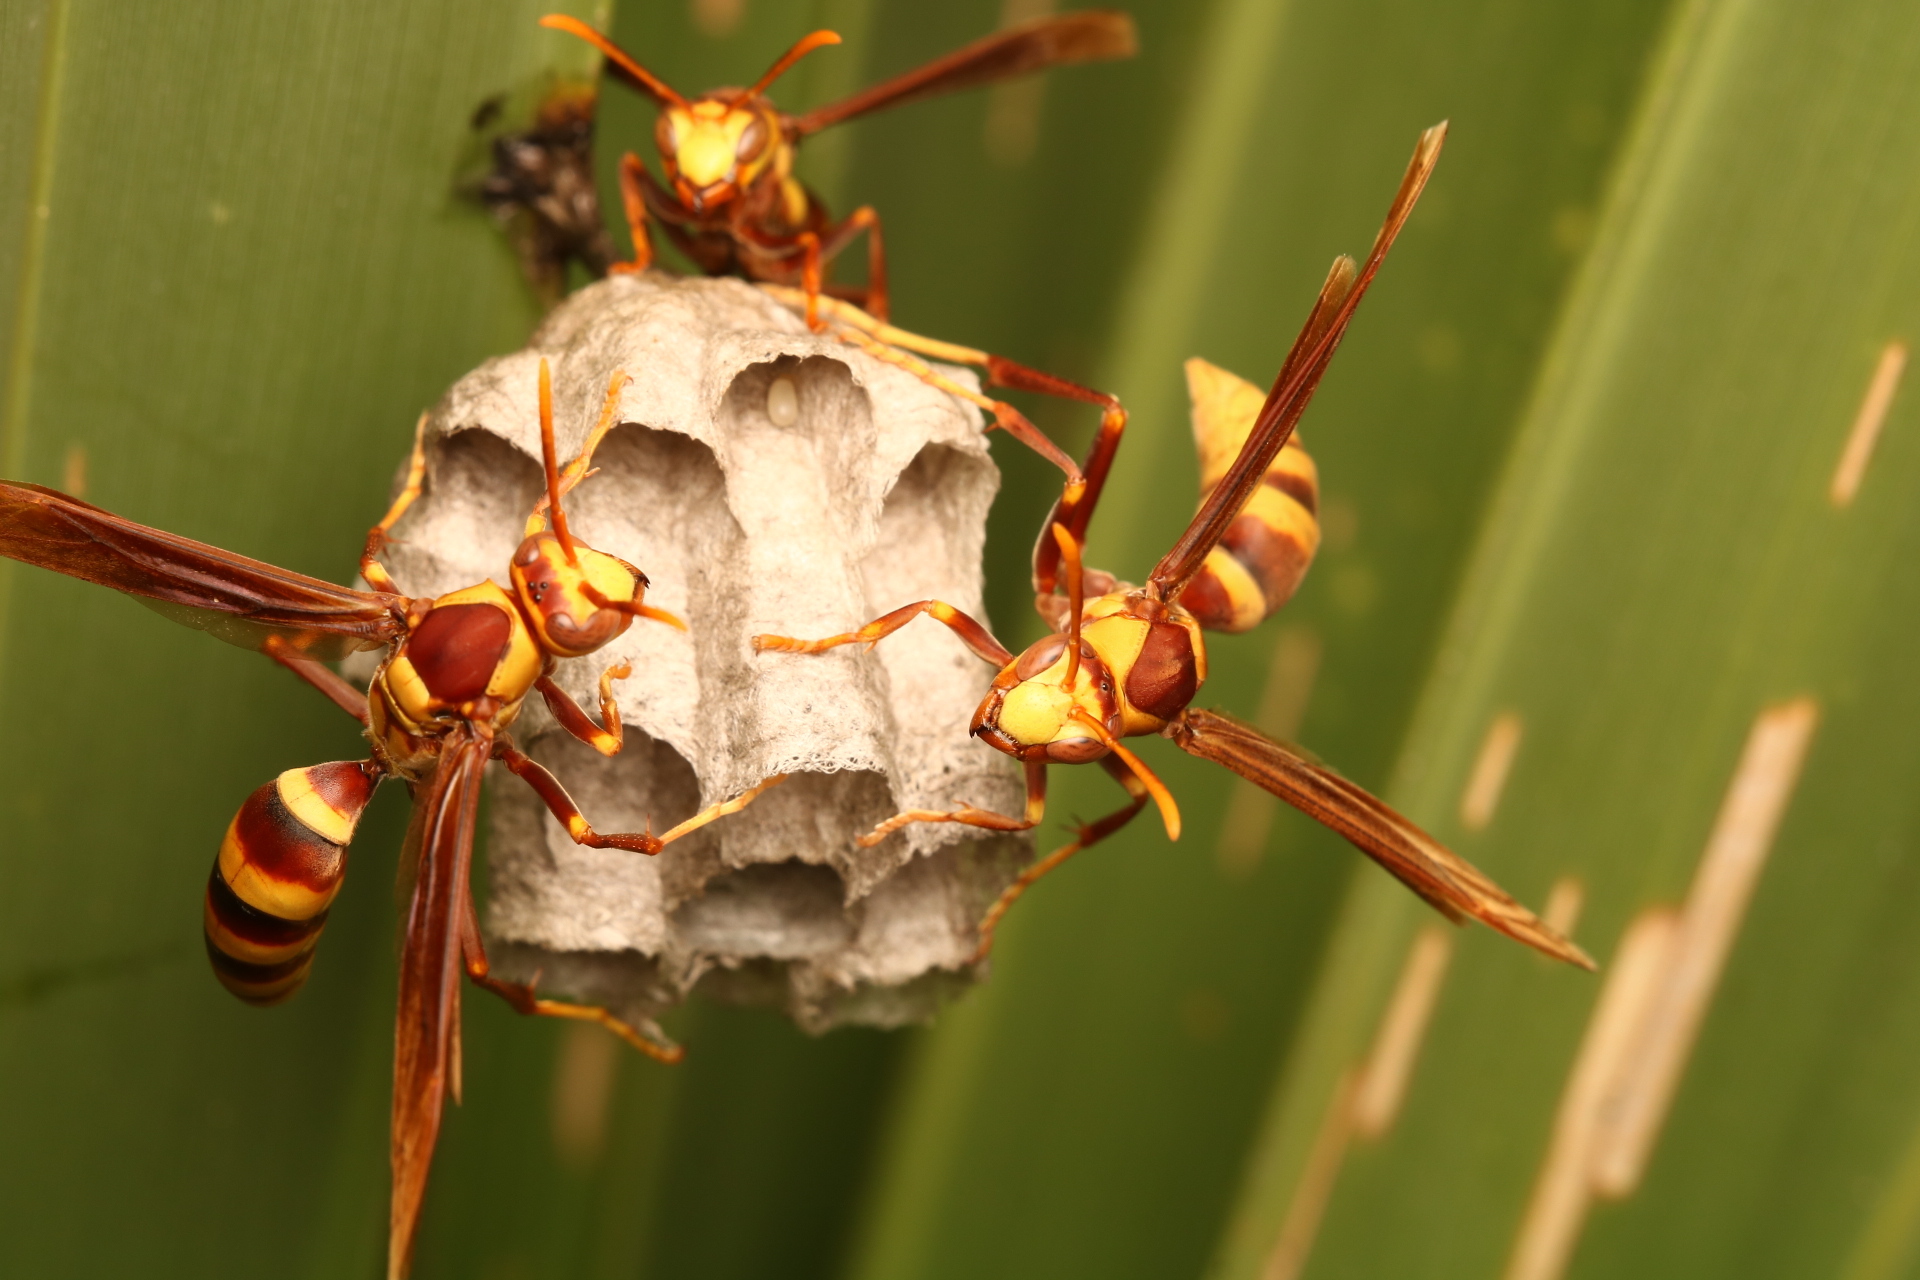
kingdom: Animalia
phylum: Arthropoda
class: Insecta
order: Hymenoptera
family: Eumenidae
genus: Polistes
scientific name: Polistes major
